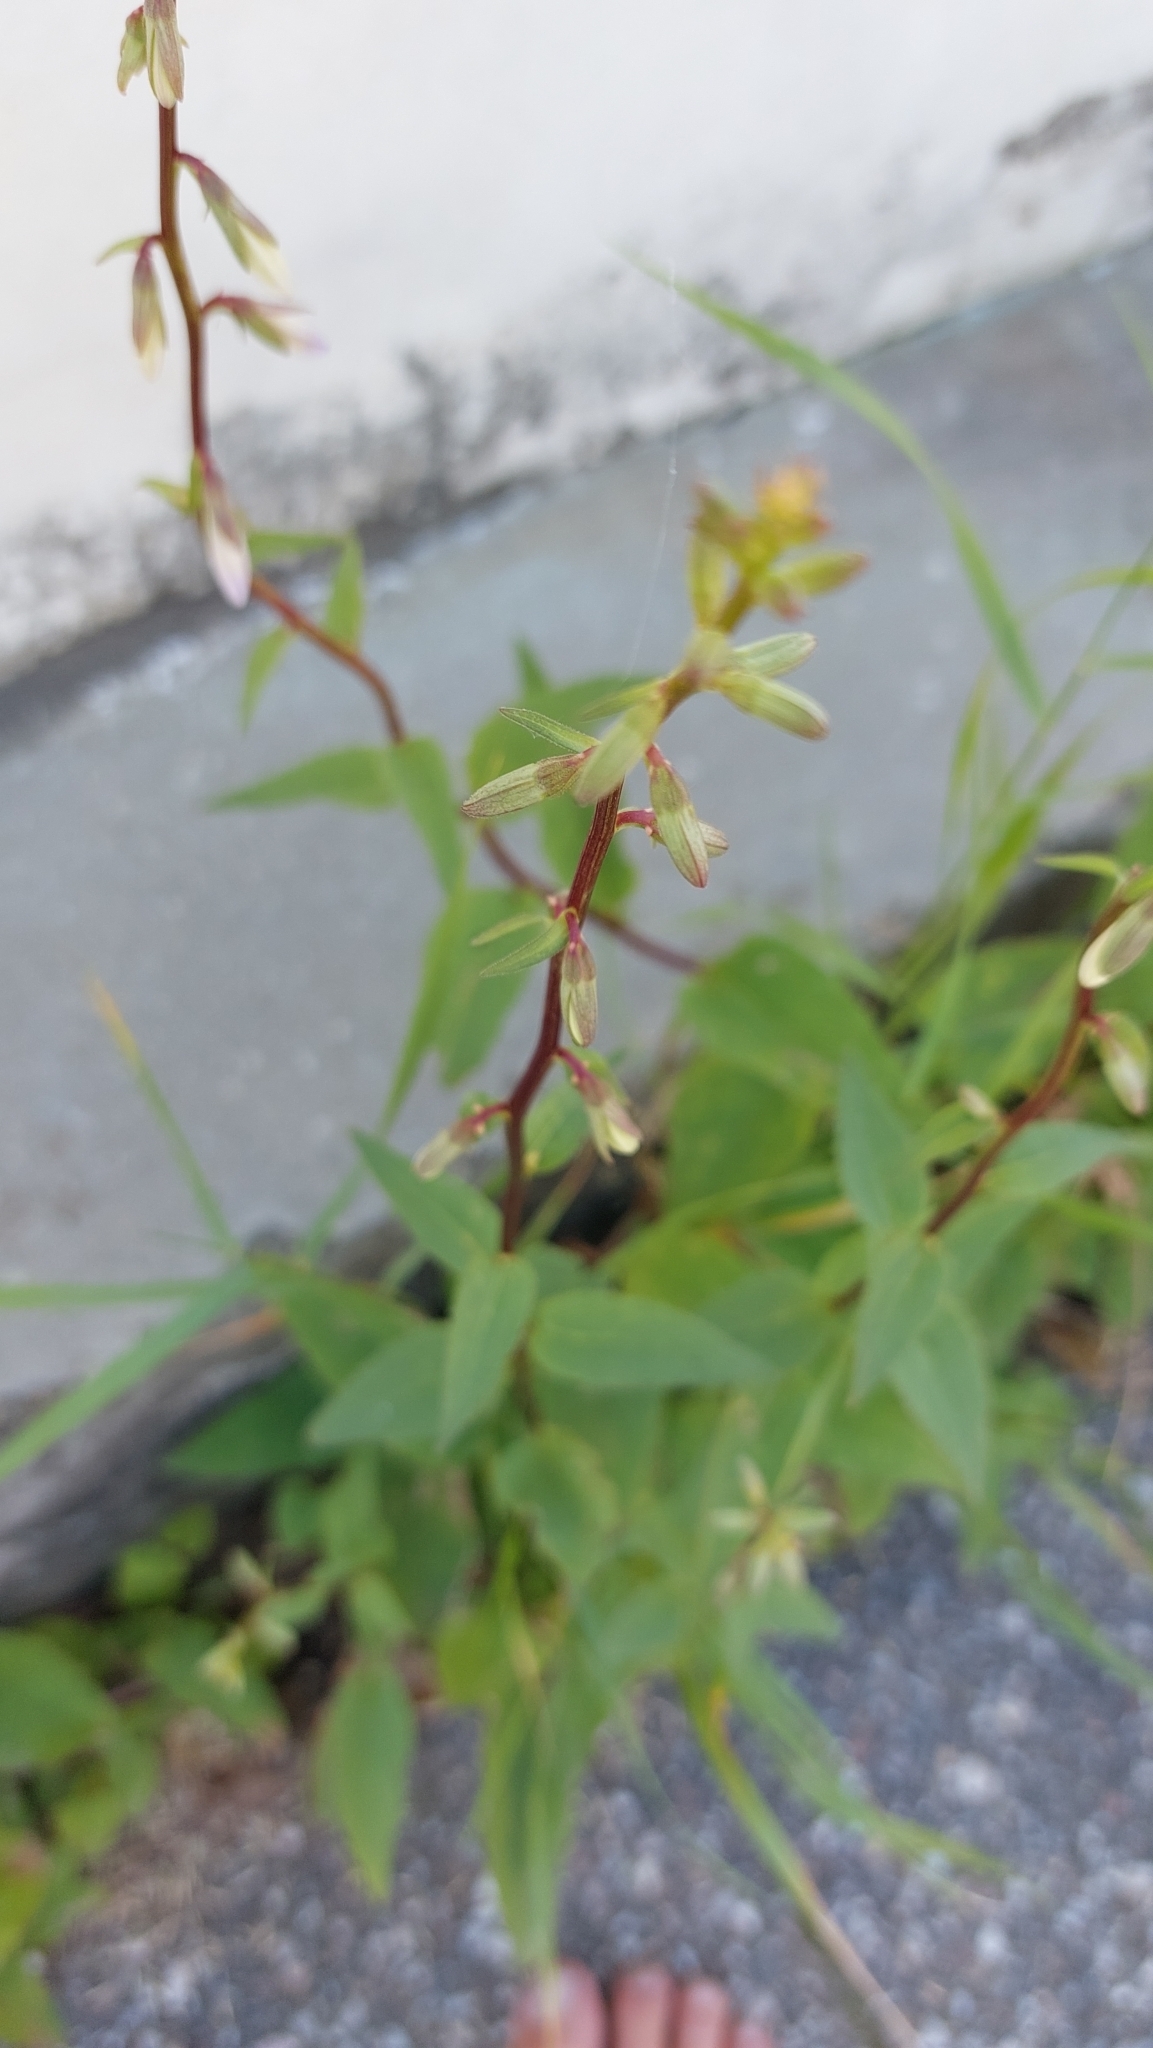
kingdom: Plantae
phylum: Tracheophyta
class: Magnoliopsida
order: Asterales
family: Campanulaceae
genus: Campanula
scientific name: Campanula rapunculoides
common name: Creeping bellflower
